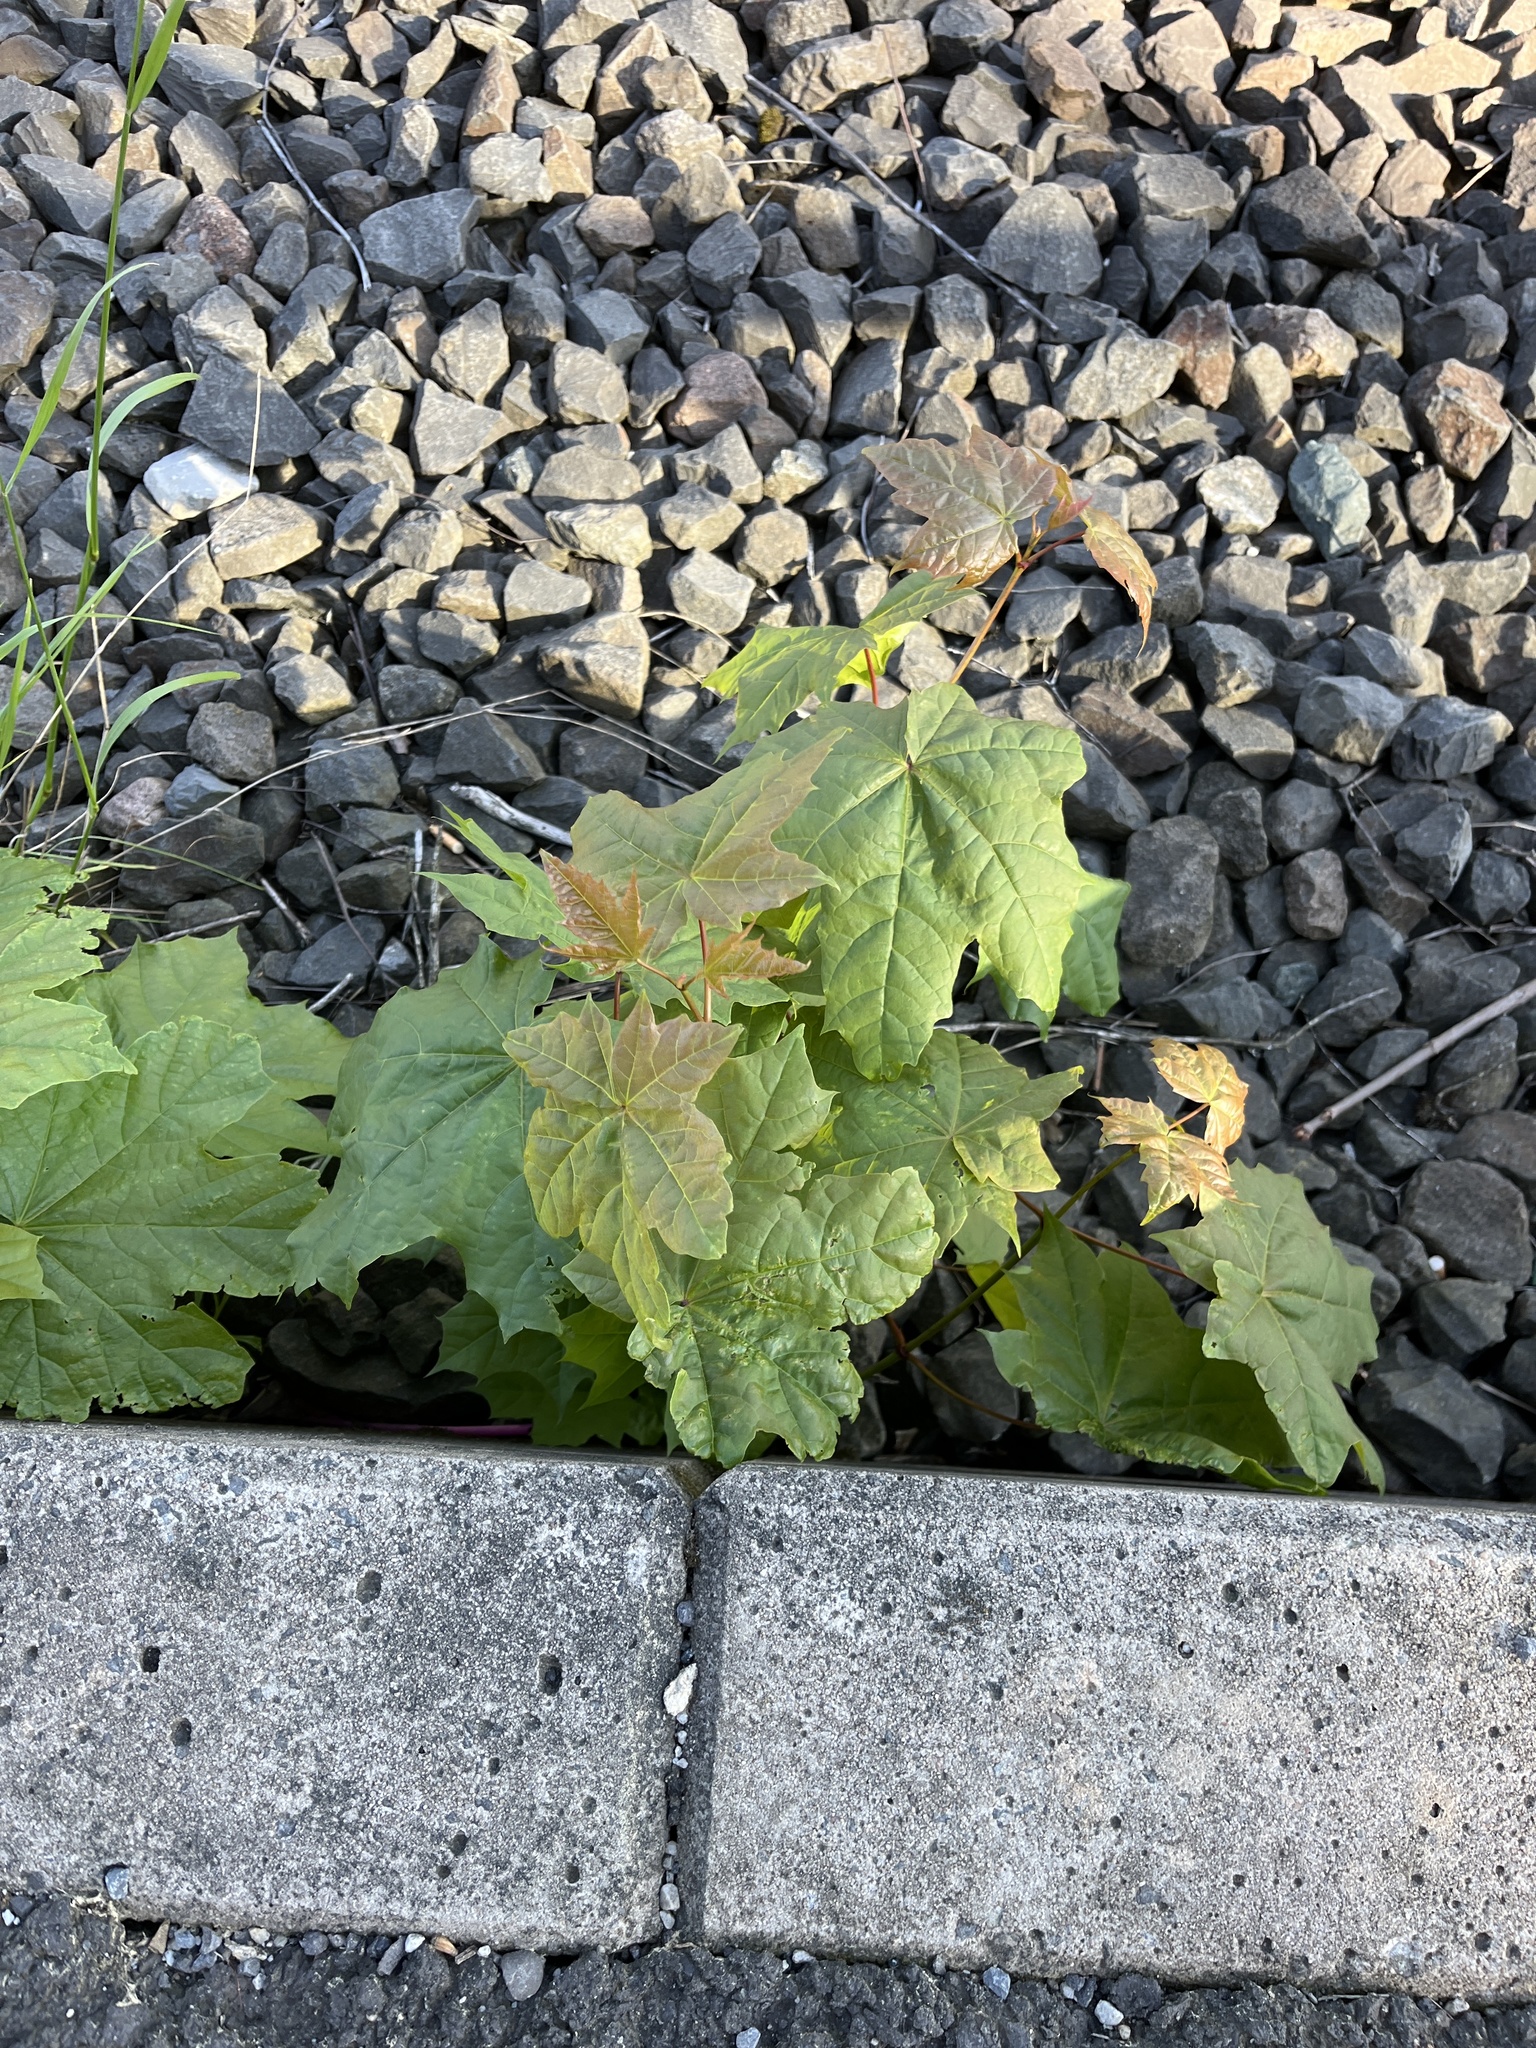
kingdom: Plantae
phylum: Tracheophyta
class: Magnoliopsida
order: Sapindales
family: Sapindaceae
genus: Acer
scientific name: Acer platanoides
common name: Norway maple
